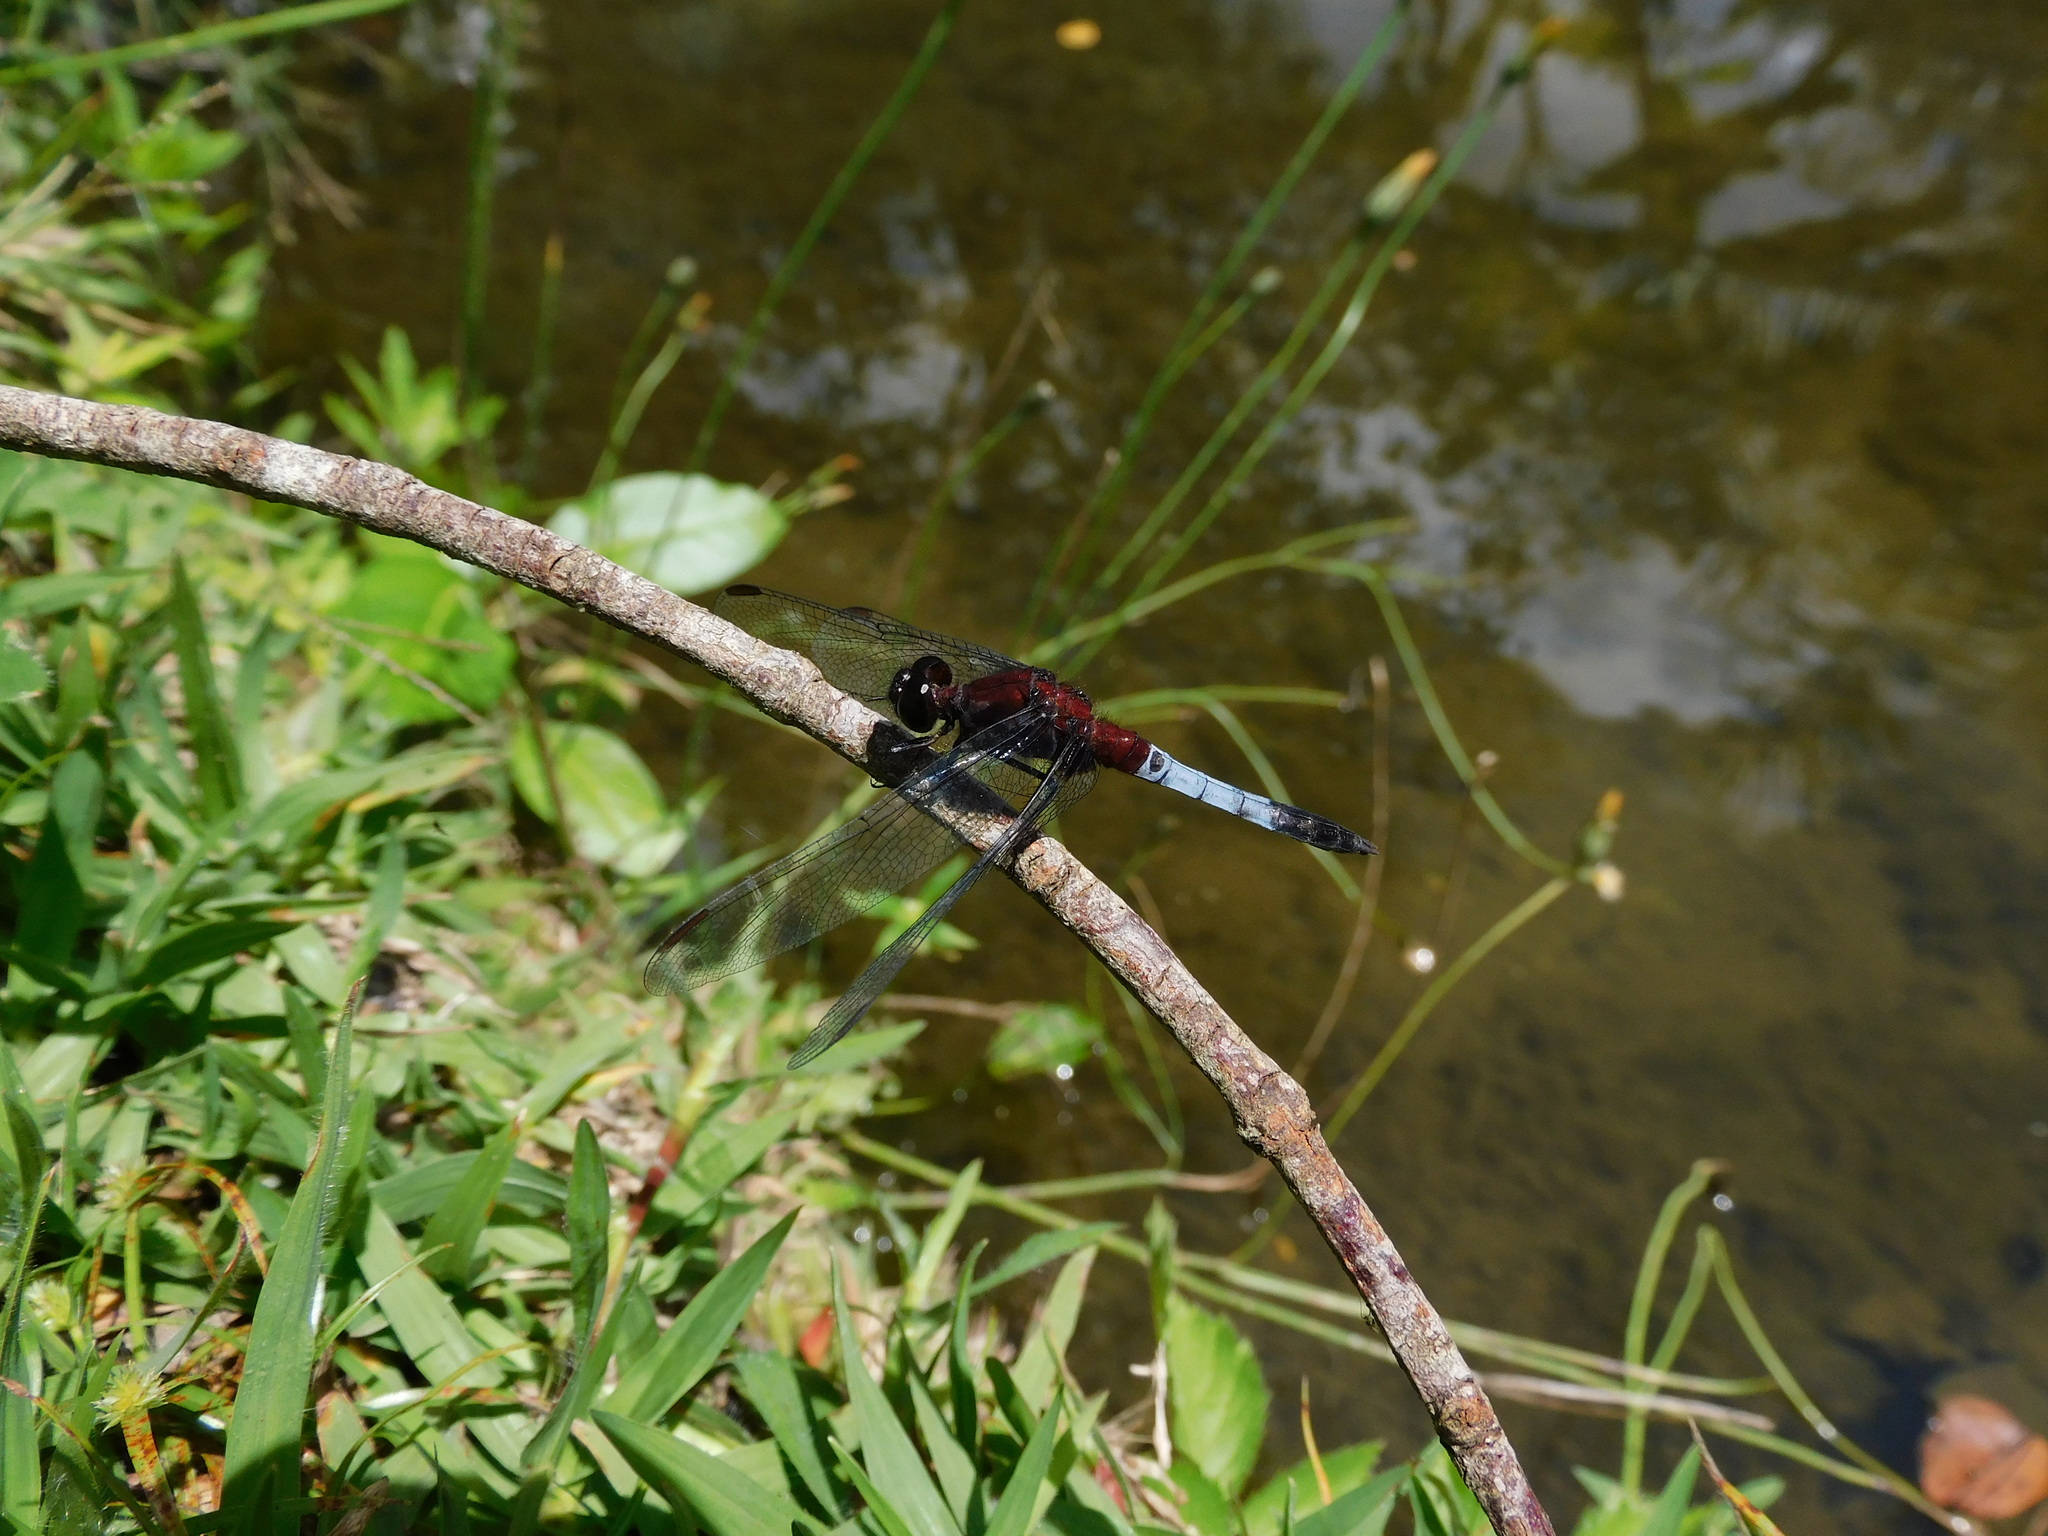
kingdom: Animalia
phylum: Arthropoda
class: Insecta
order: Odonata
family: Libellulidae
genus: Erythrodiplax
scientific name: Erythrodiplax abjecta
